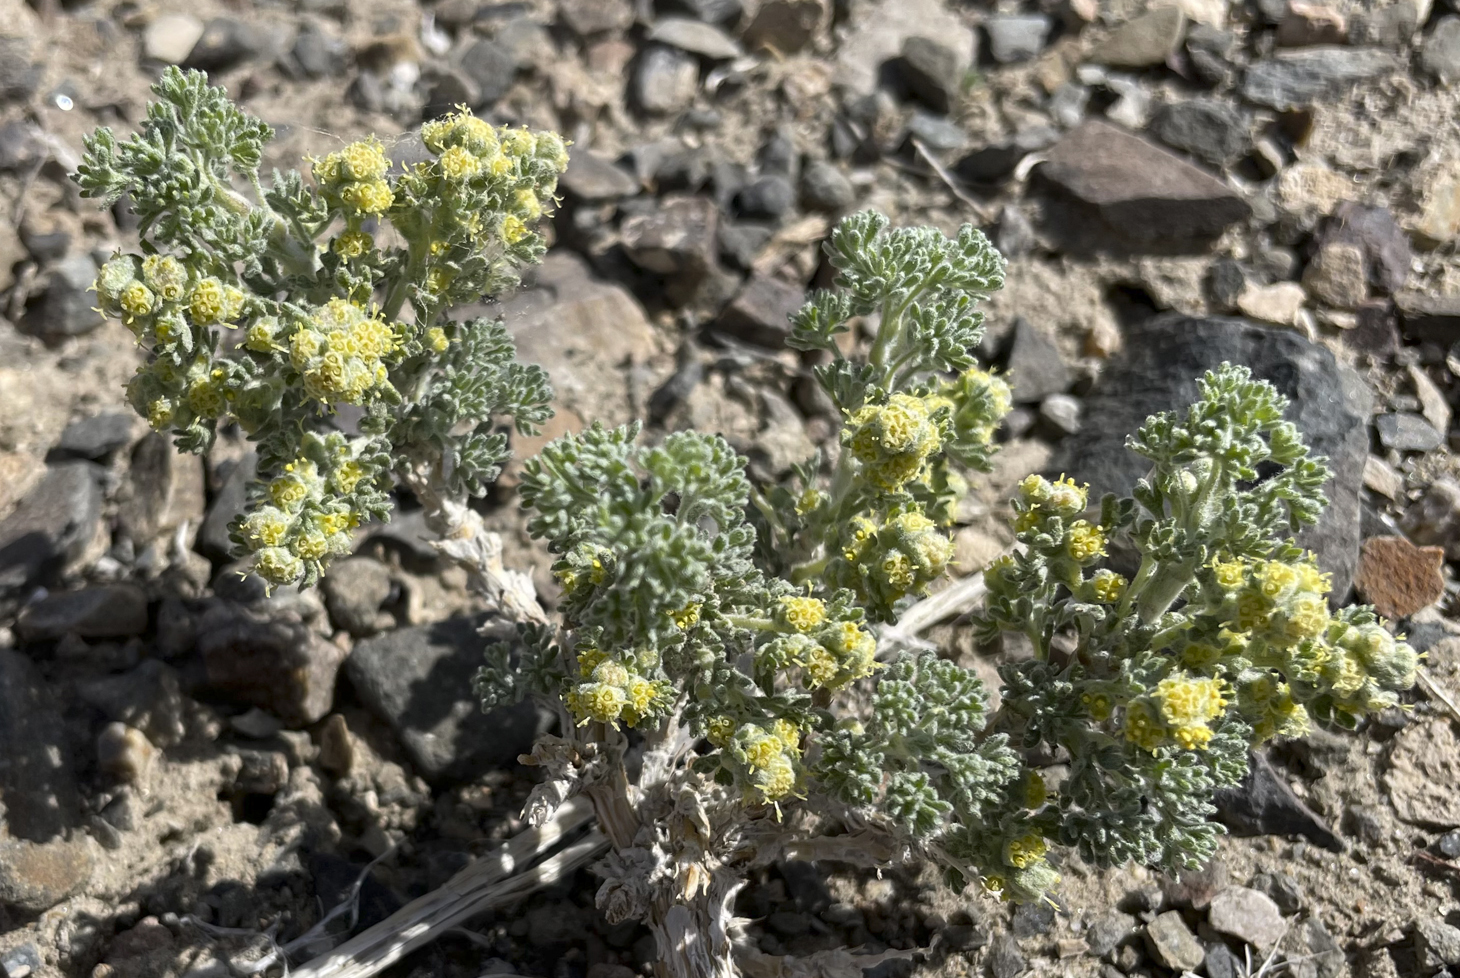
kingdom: Plantae
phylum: Tracheophyta
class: Magnoliopsida
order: Asterales
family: Asteraceae
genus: Artemisia
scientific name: Artemisia spinescens
